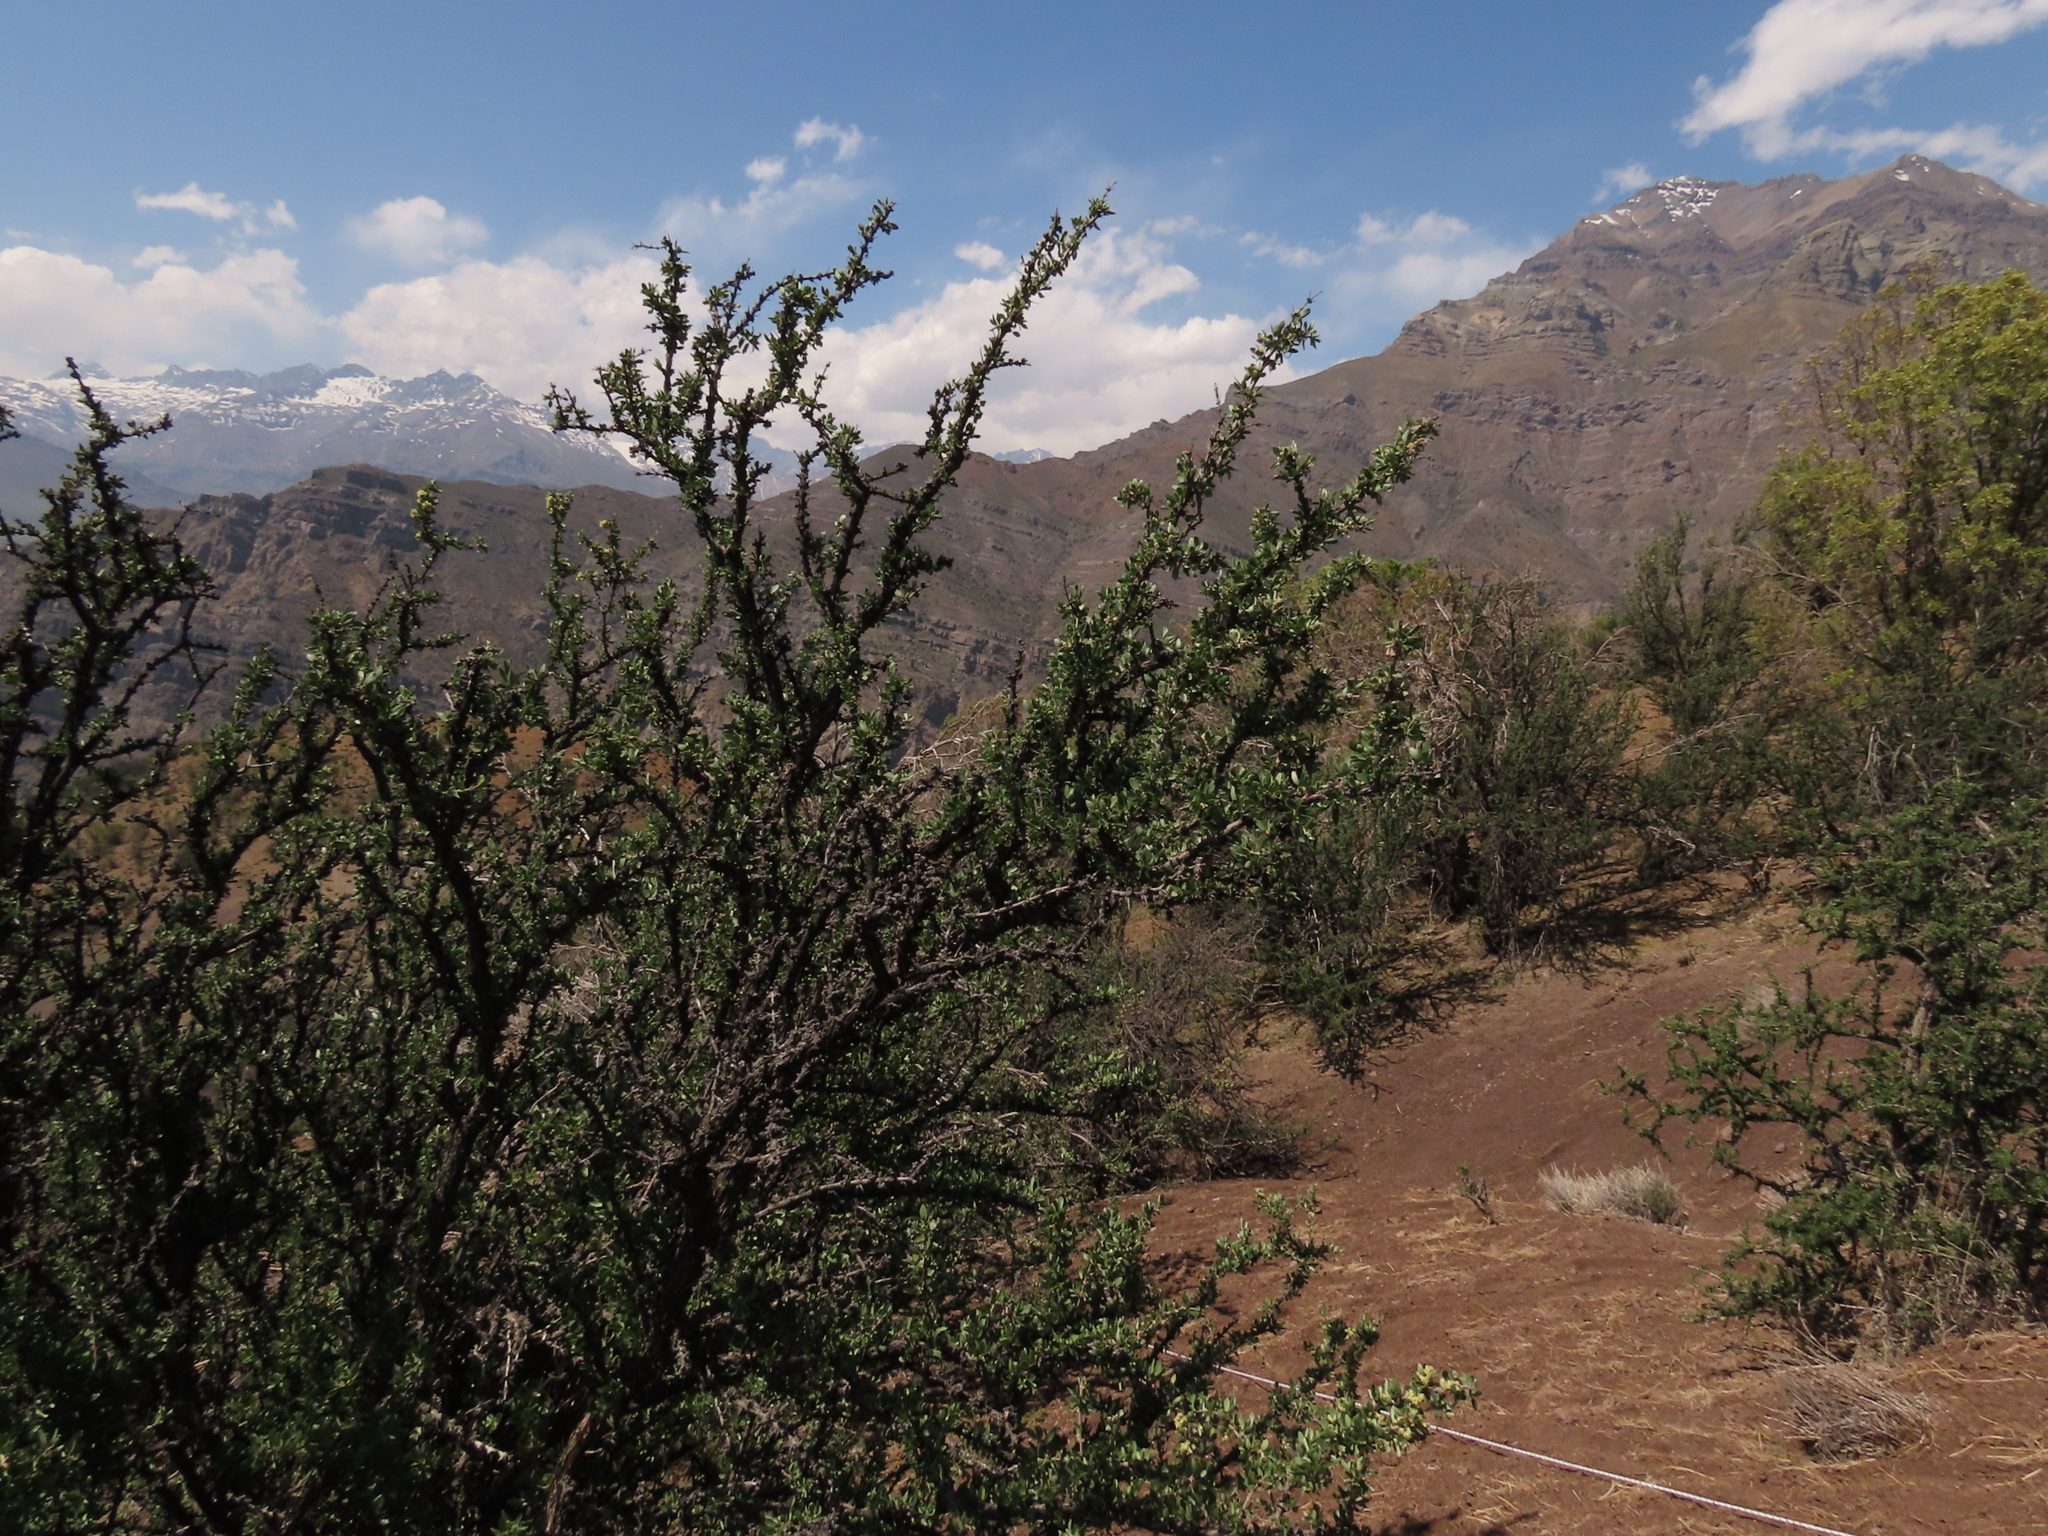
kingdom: Plantae
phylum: Tracheophyta
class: Magnoliopsida
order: Rosales
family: Rhamnaceae
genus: Trevoa
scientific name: Trevoa quinquenervia
